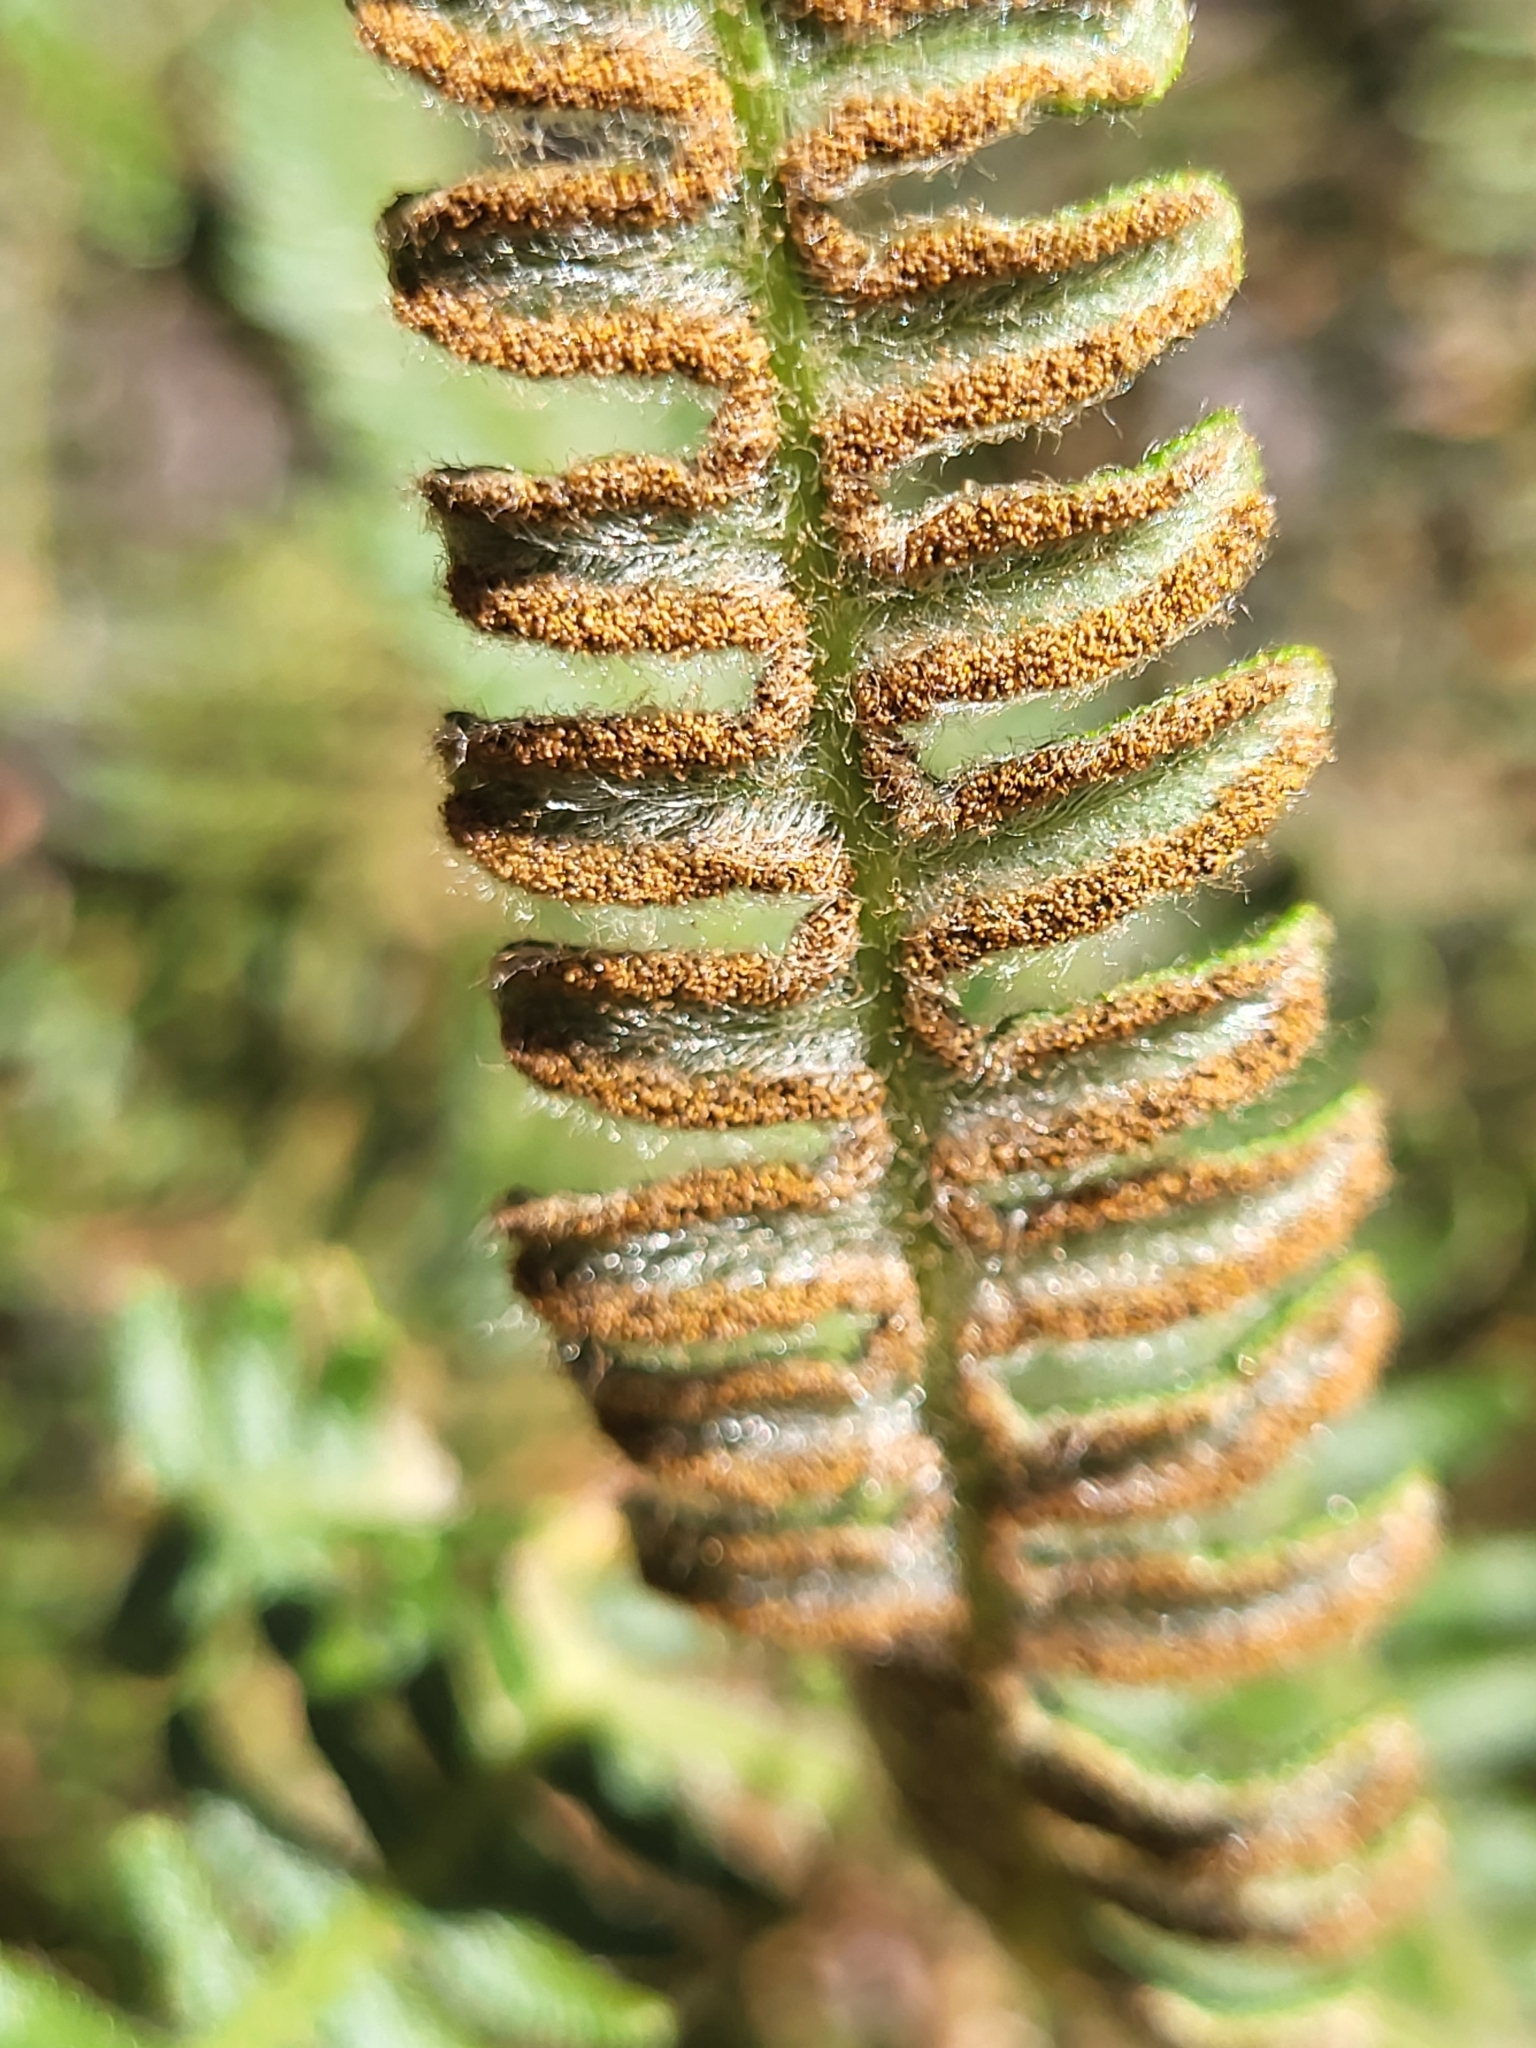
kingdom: Plantae
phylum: Tracheophyta
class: Polypodiopsida
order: Polypodiales
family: Dennstaedtiaceae
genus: Pteridium
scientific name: Pteridium aquilinum
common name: Bracken
